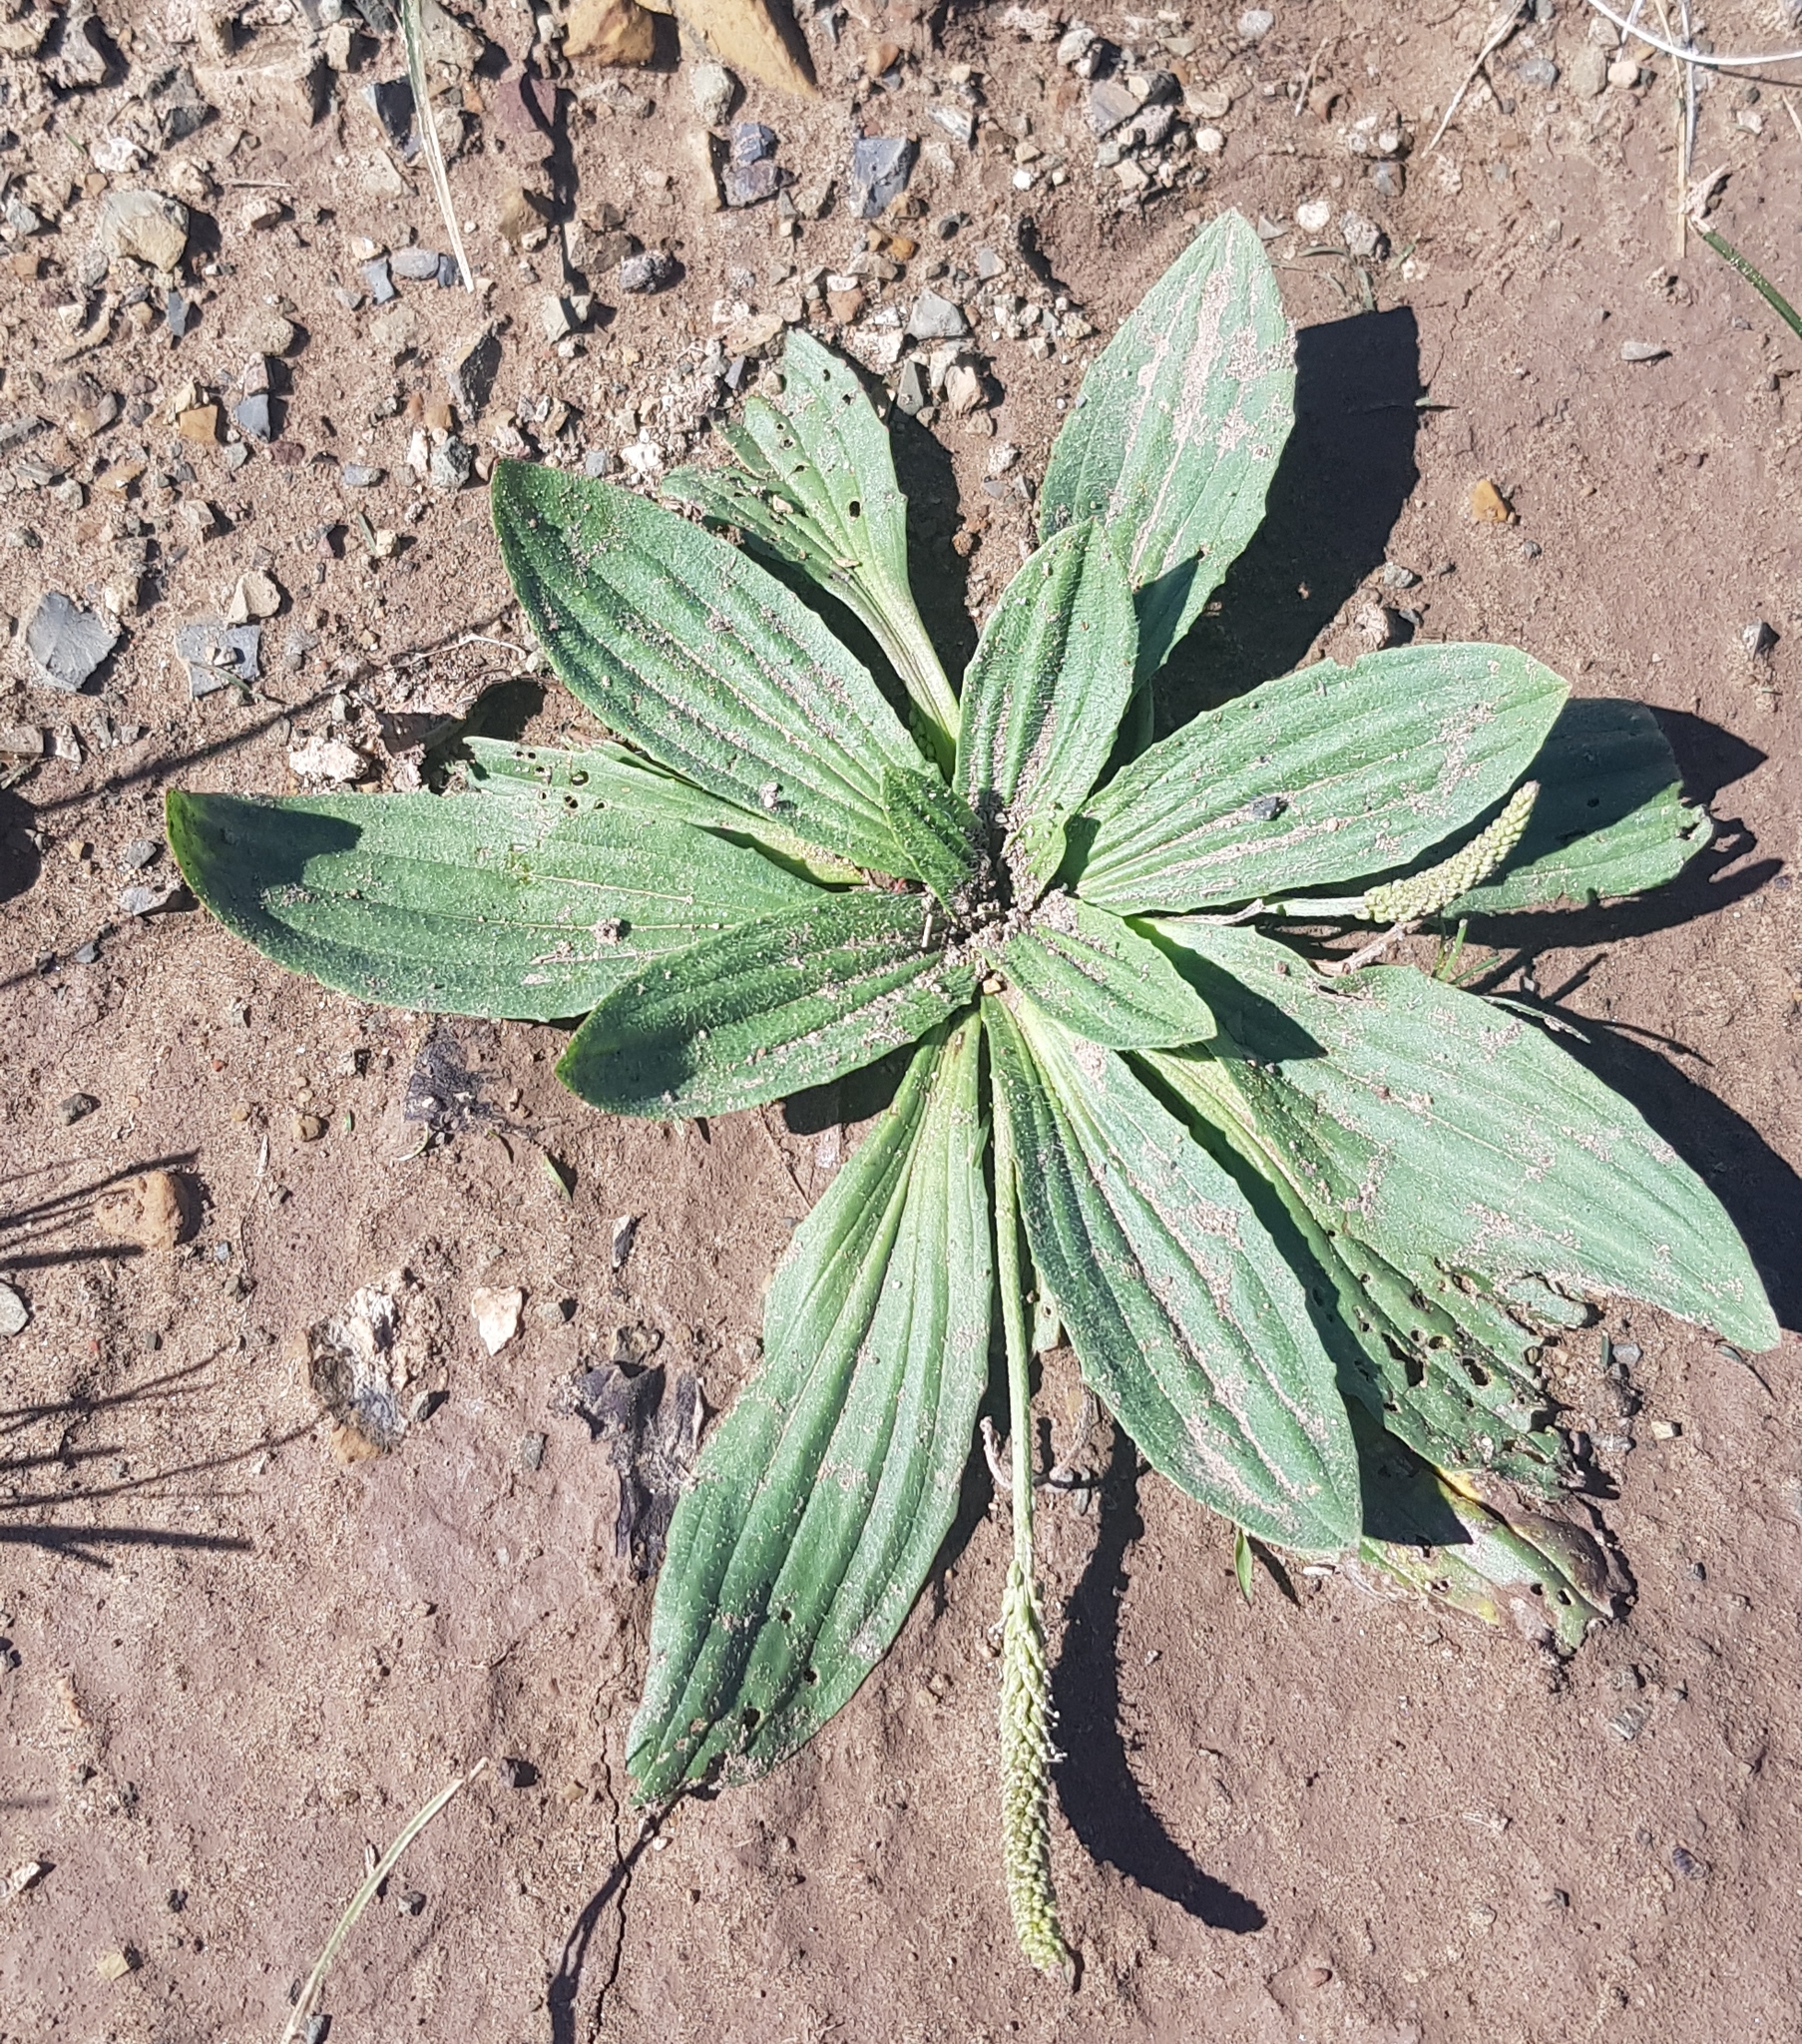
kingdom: Plantae
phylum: Tracheophyta
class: Magnoliopsida
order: Lamiales
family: Plantaginaceae
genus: Plantago
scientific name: Plantago depressa
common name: Depressed plantain
